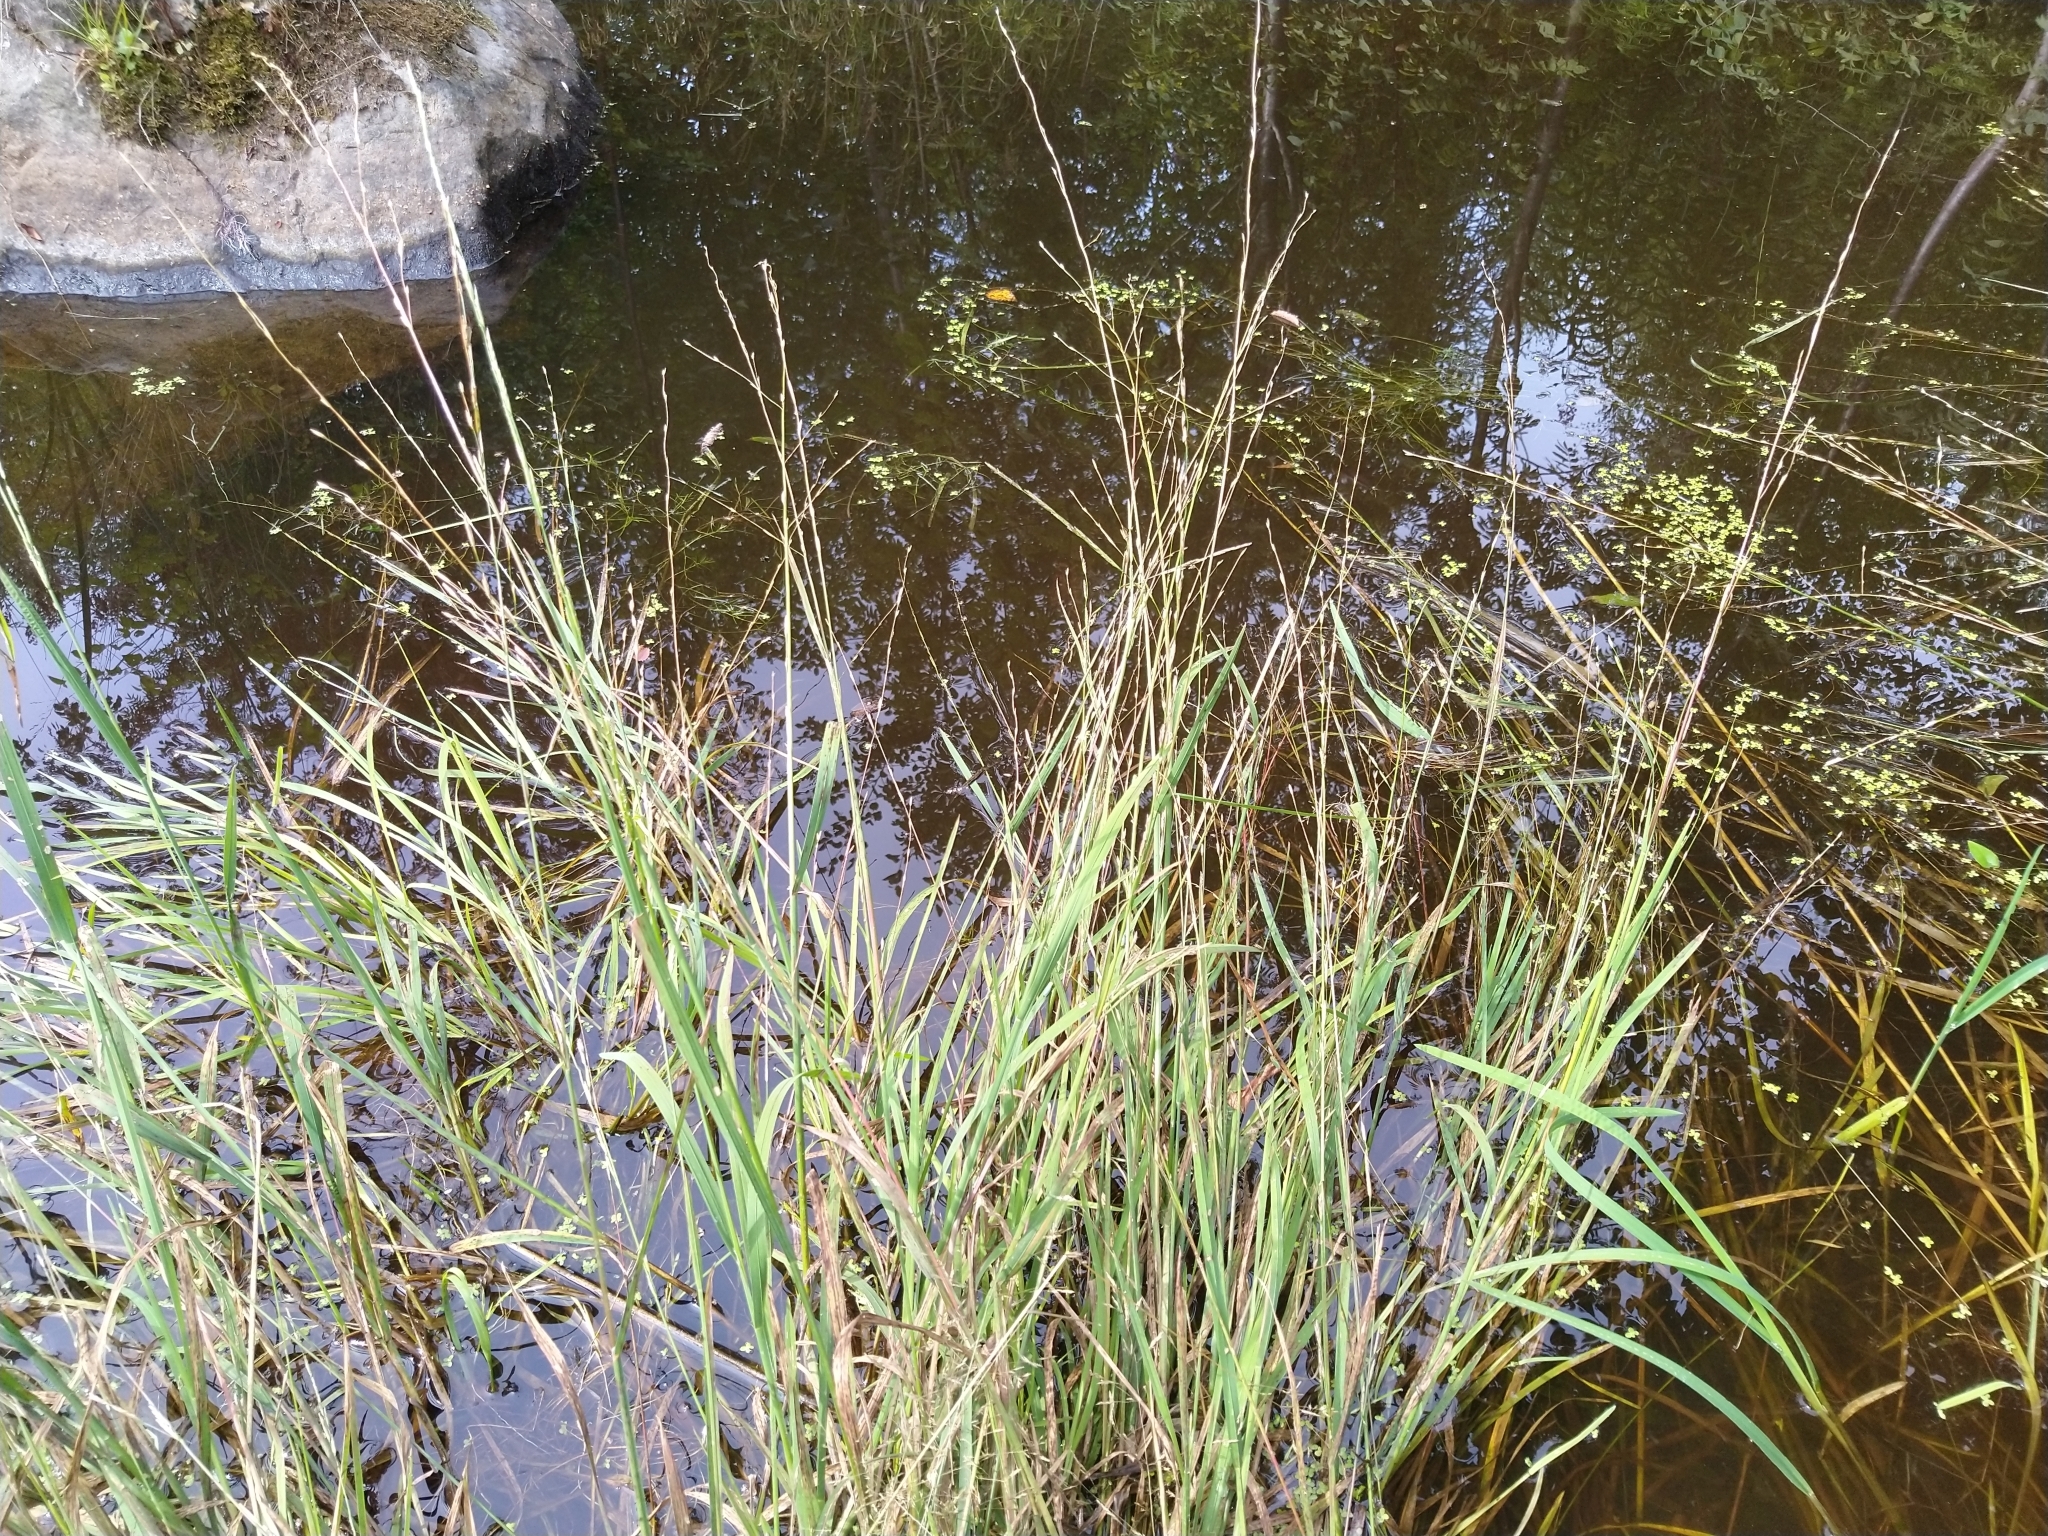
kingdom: Plantae
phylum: Tracheophyta
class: Liliopsida
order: Poales
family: Poaceae
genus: Glyceria
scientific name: Glyceria fluitans
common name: Floating sweet-grass
